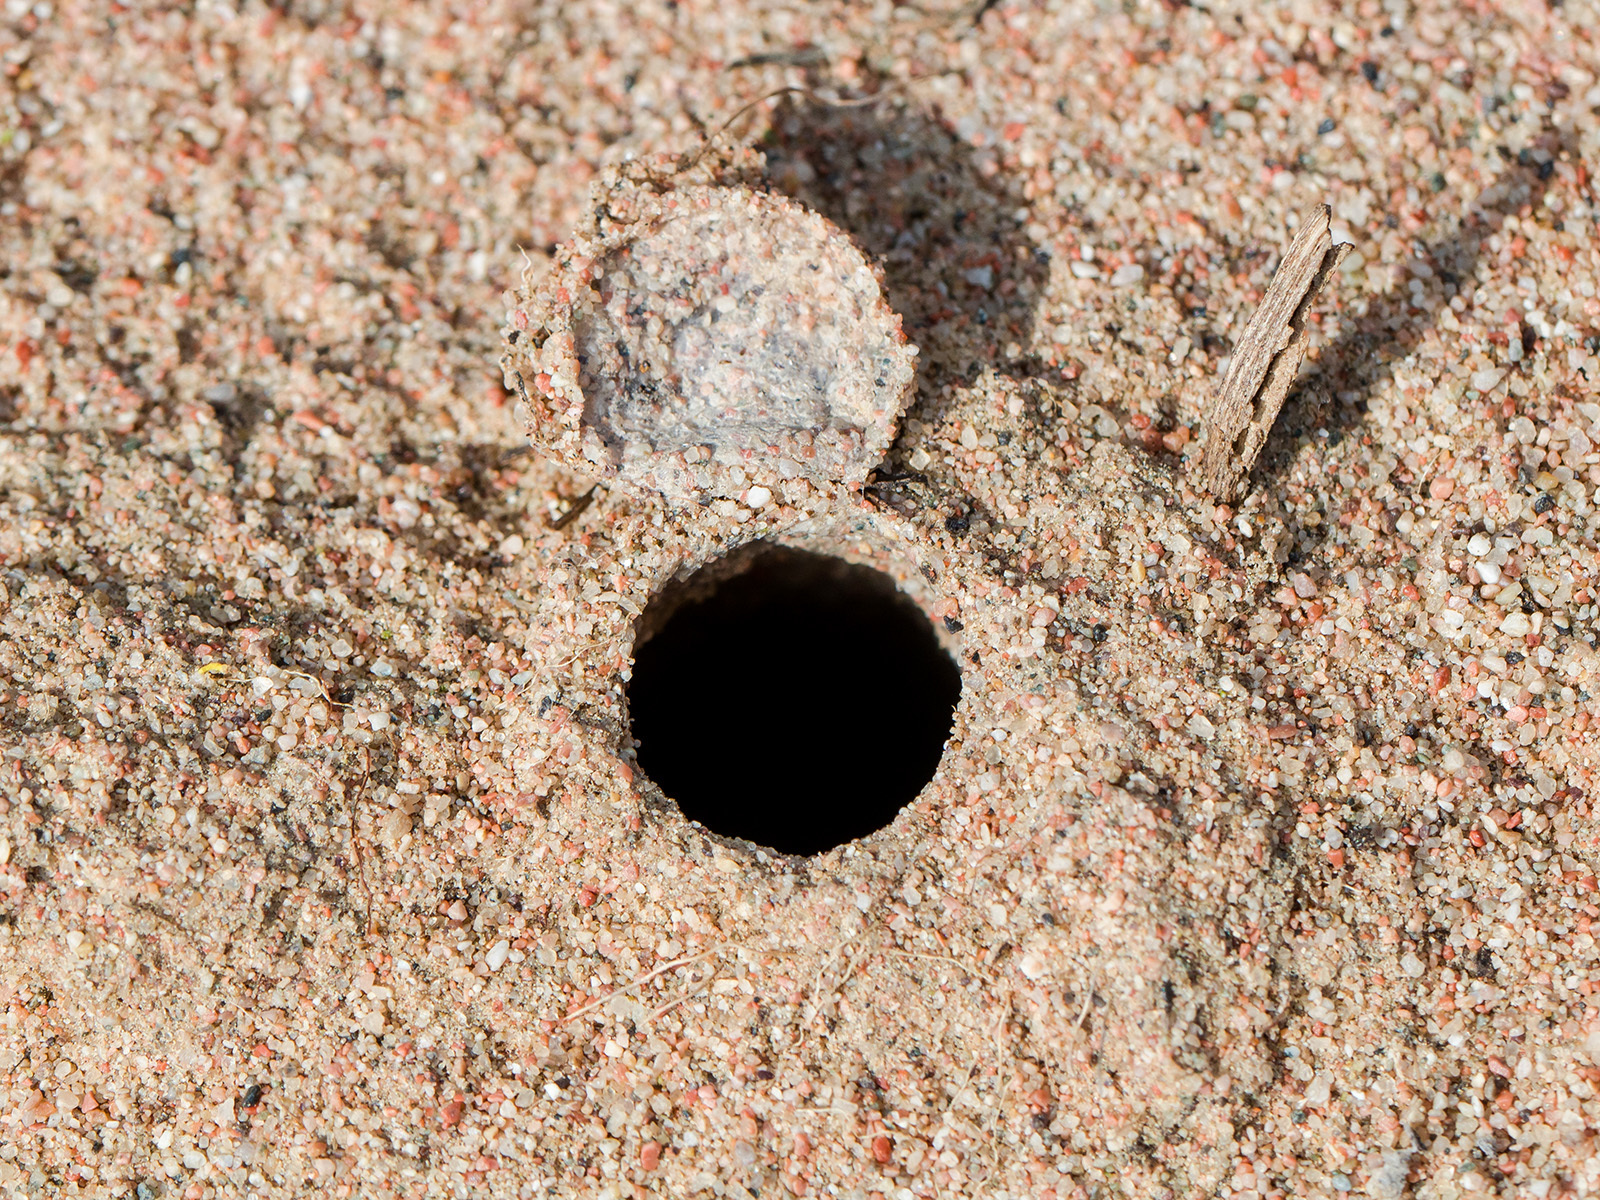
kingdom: Animalia
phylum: Arthropoda
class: Arachnida
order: Araneae
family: Lycosidae
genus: Alopecosa
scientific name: Alopecosa marikovskyi
